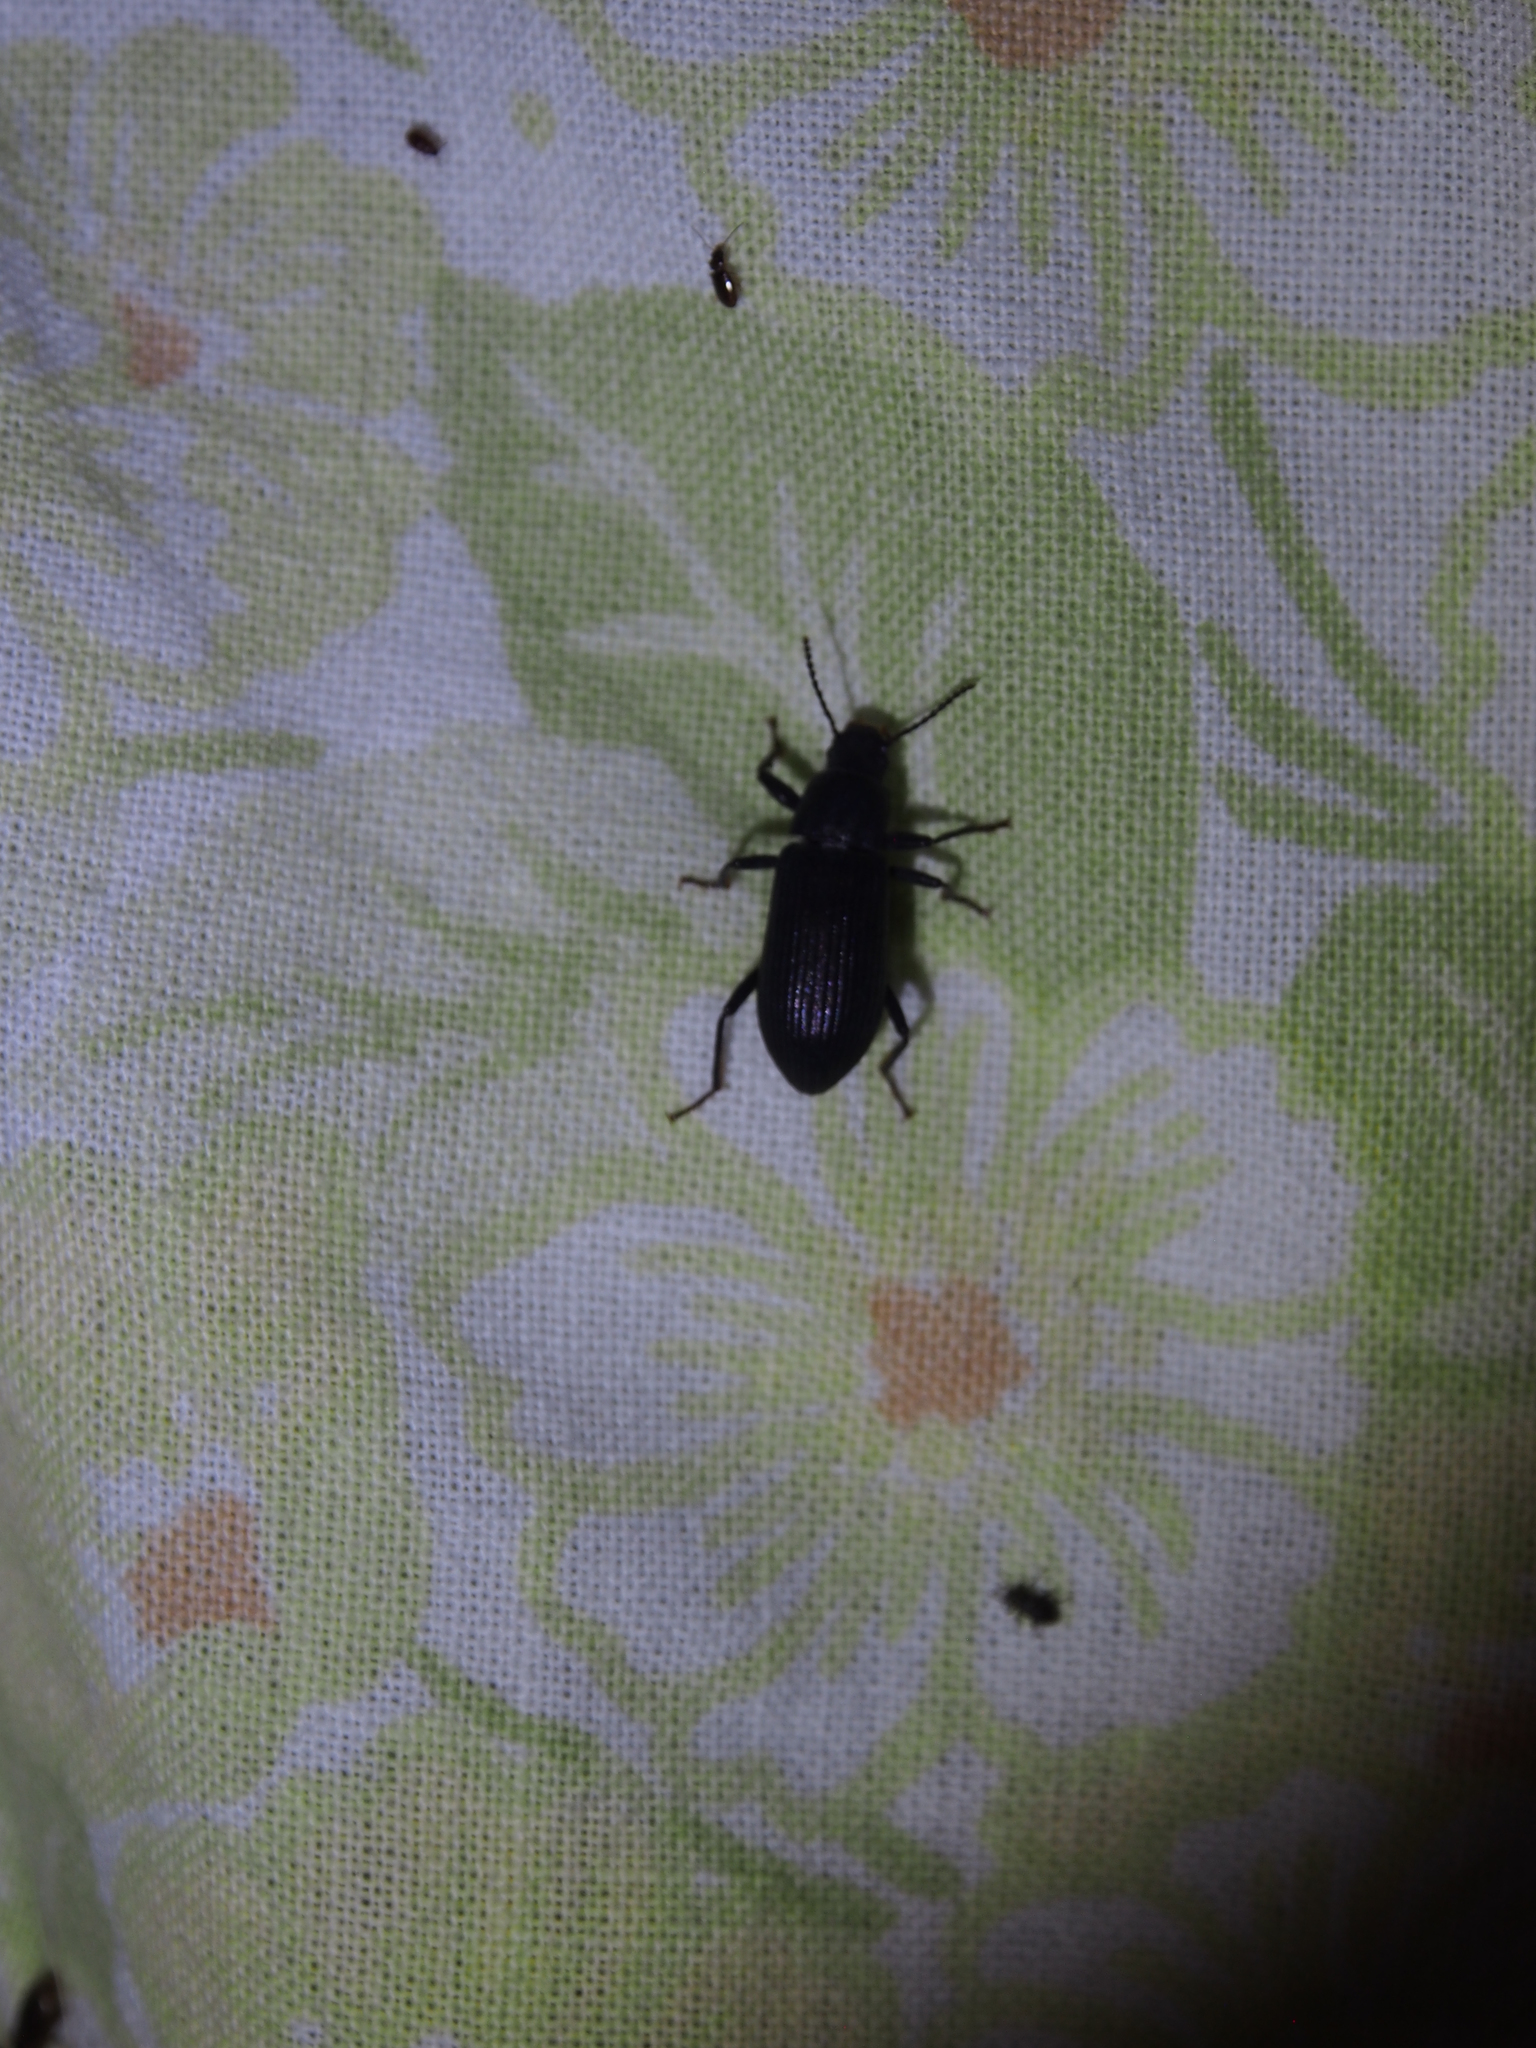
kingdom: Animalia
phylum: Arthropoda
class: Insecta
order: Coleoptera
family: Tenebrionidae
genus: Xylopinus
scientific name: Xylopinus saperdoides
